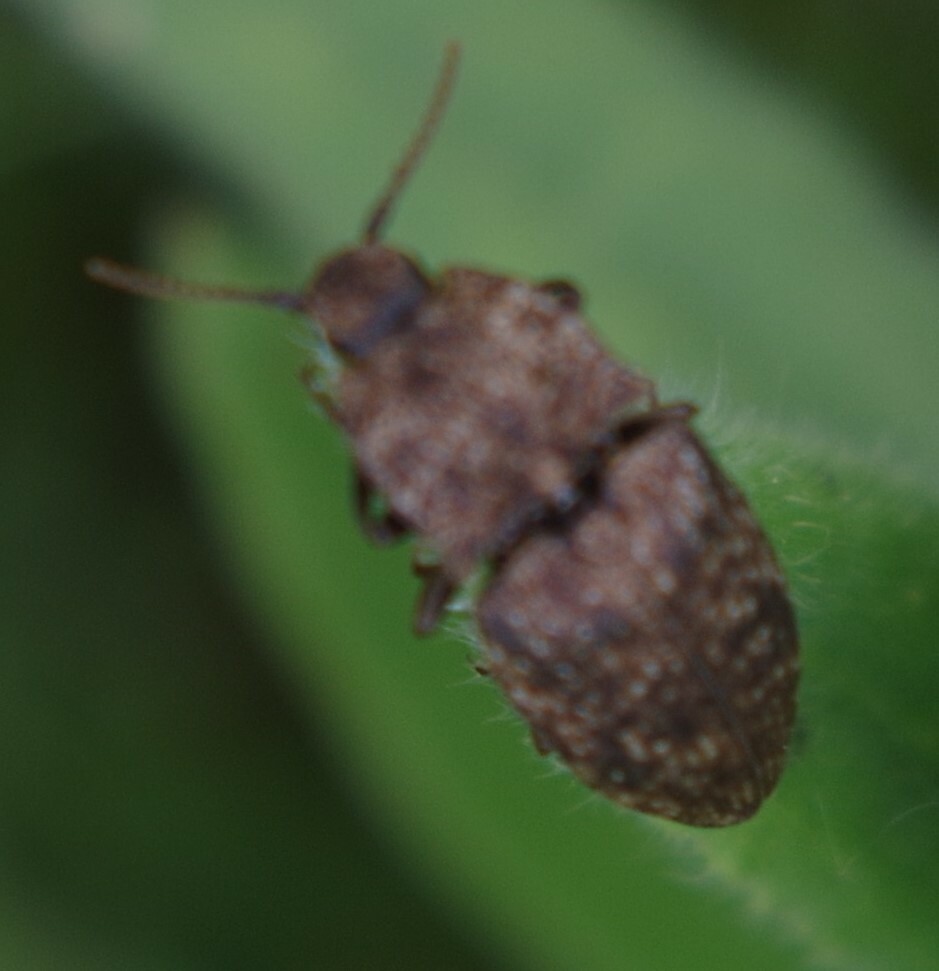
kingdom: Animalia
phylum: Arthropoda
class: Insecta
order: Coleoptera
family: Elateridae
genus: Agrypnus
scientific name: Agrypnus murinus
